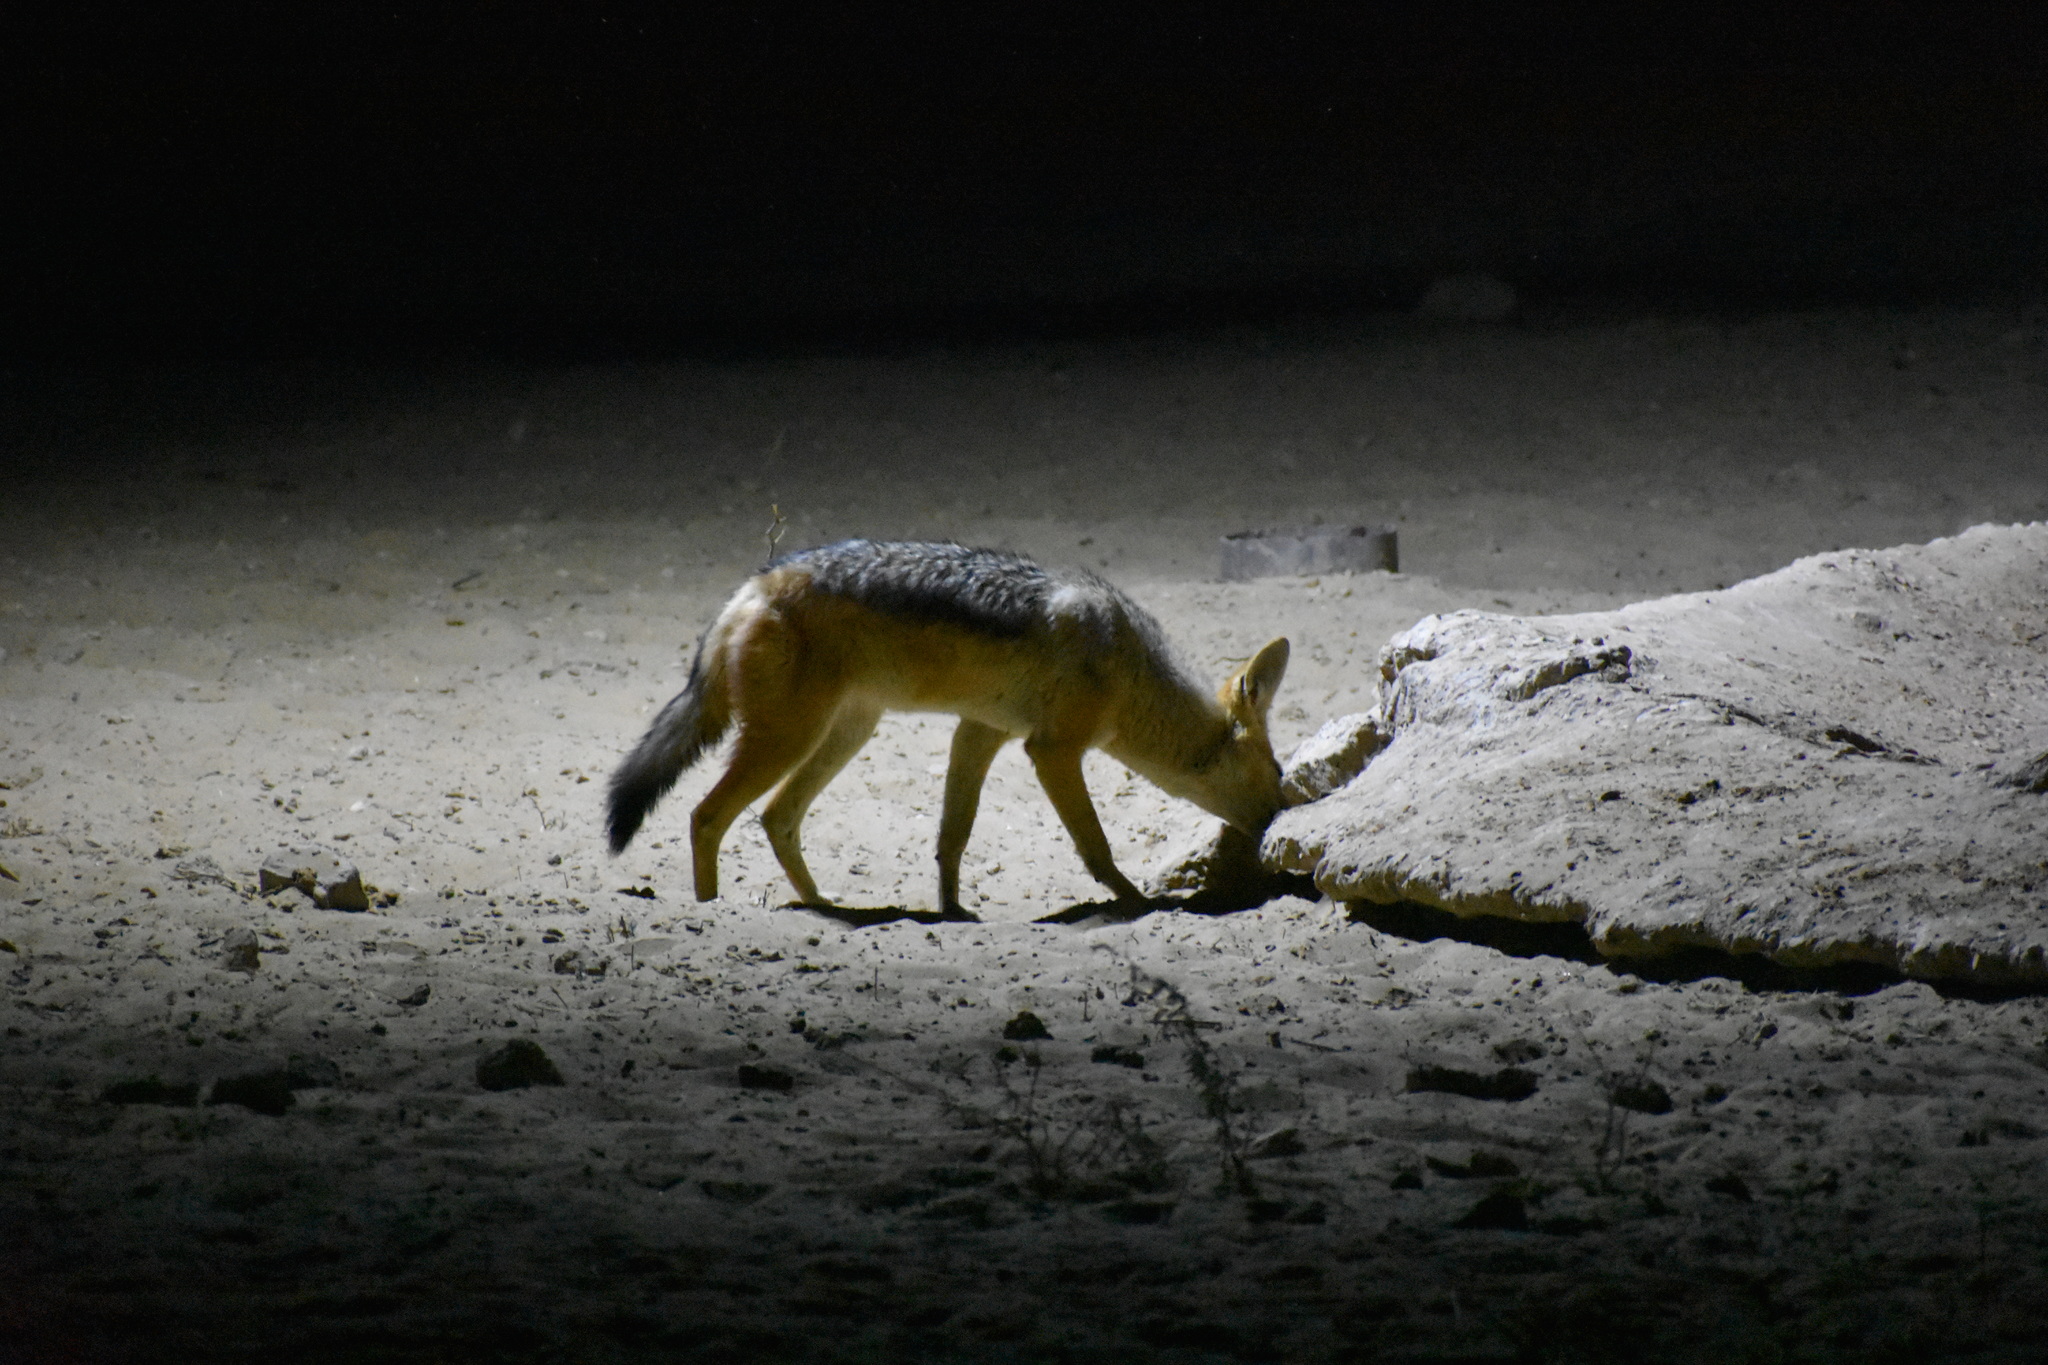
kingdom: Animalia
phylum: Chordata
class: Mammalia
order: Carnivora
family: Canidae
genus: Lupulella
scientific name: Lupulella
